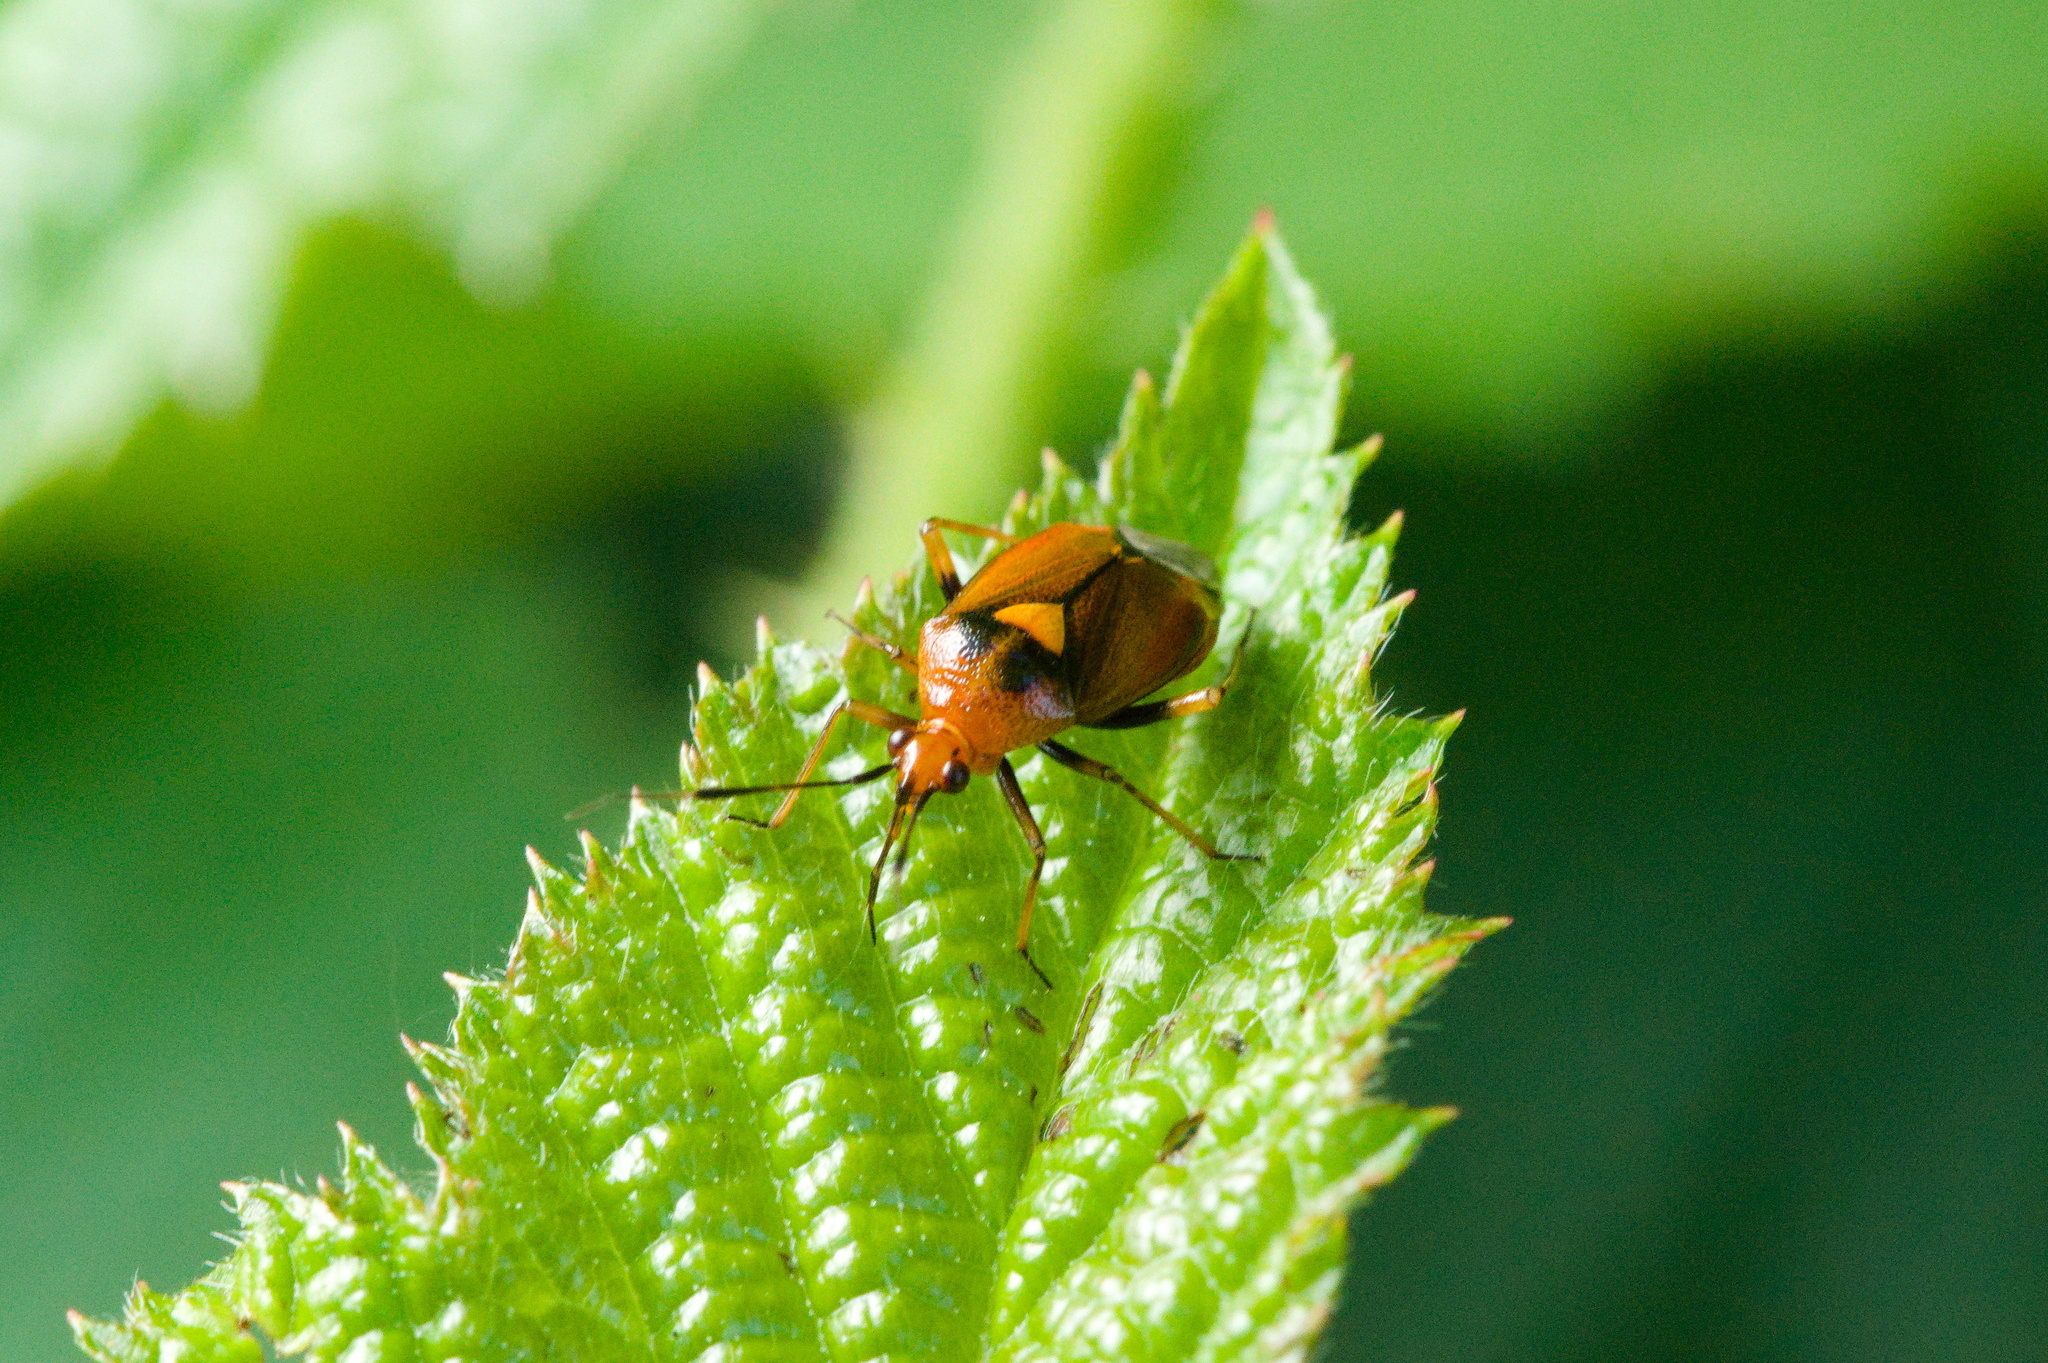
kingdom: Animalia
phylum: Arthropoda
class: Insecta
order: Hemiptera
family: Miridae
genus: Deraeocoris
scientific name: Deraeocoris ruber
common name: Plant bug
